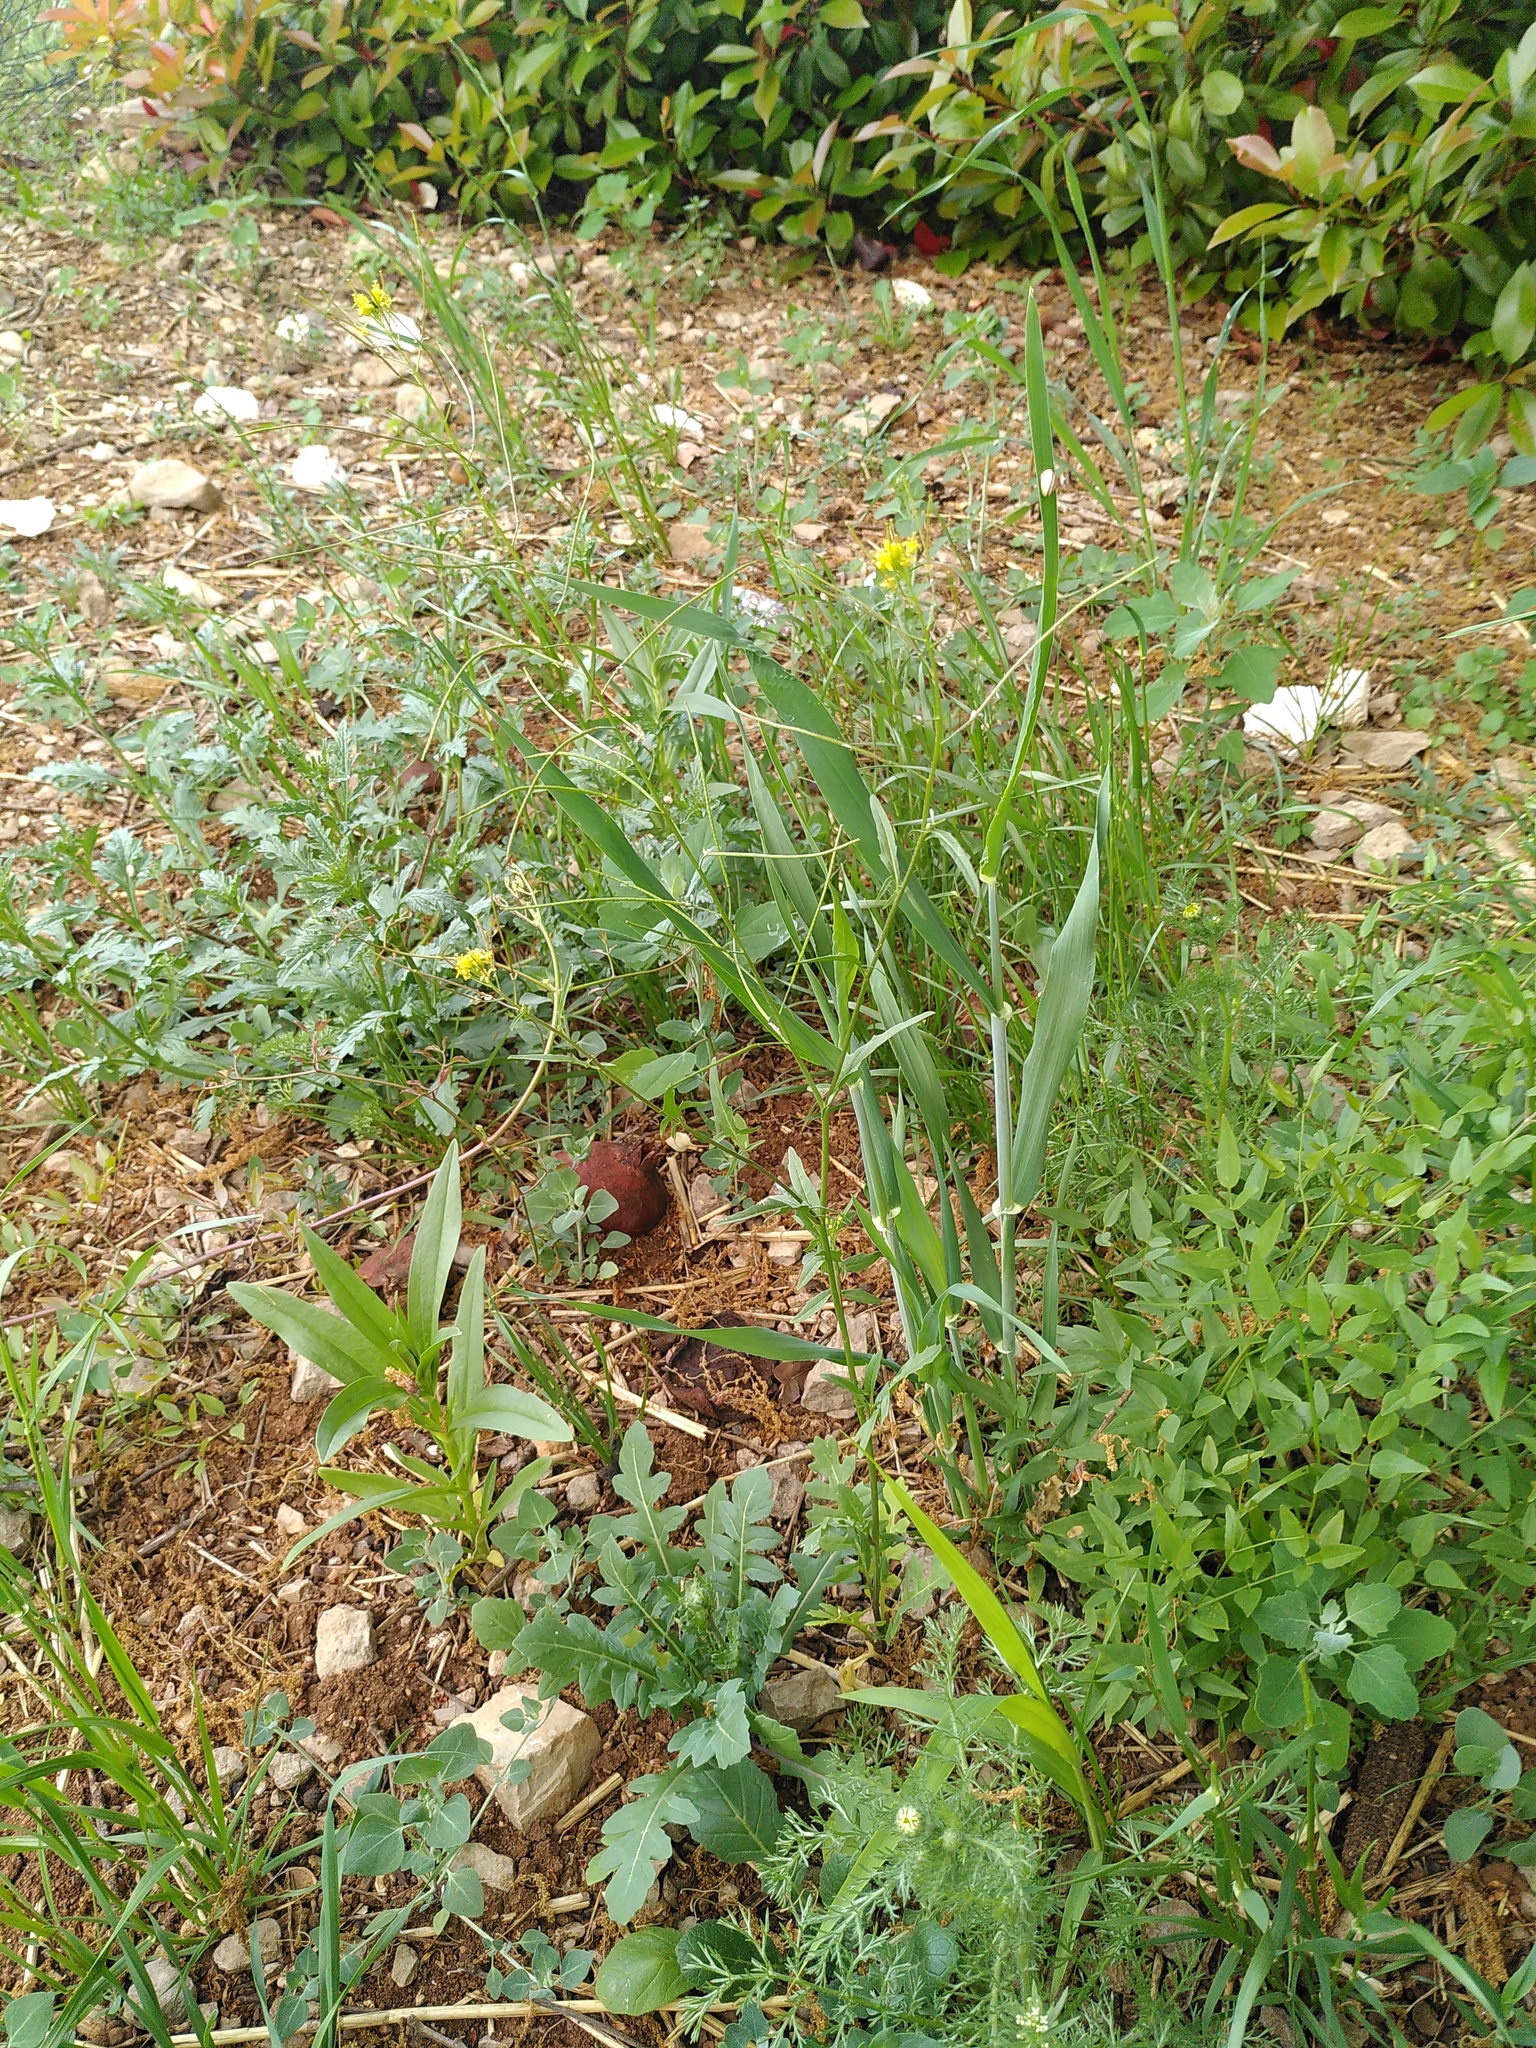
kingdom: Plantae
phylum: Tracheophyta
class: Magnoliopsida
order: Brassicales
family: Brassicaceae
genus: Sisymbrium
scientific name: Sisymbrium irio
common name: London rocket
